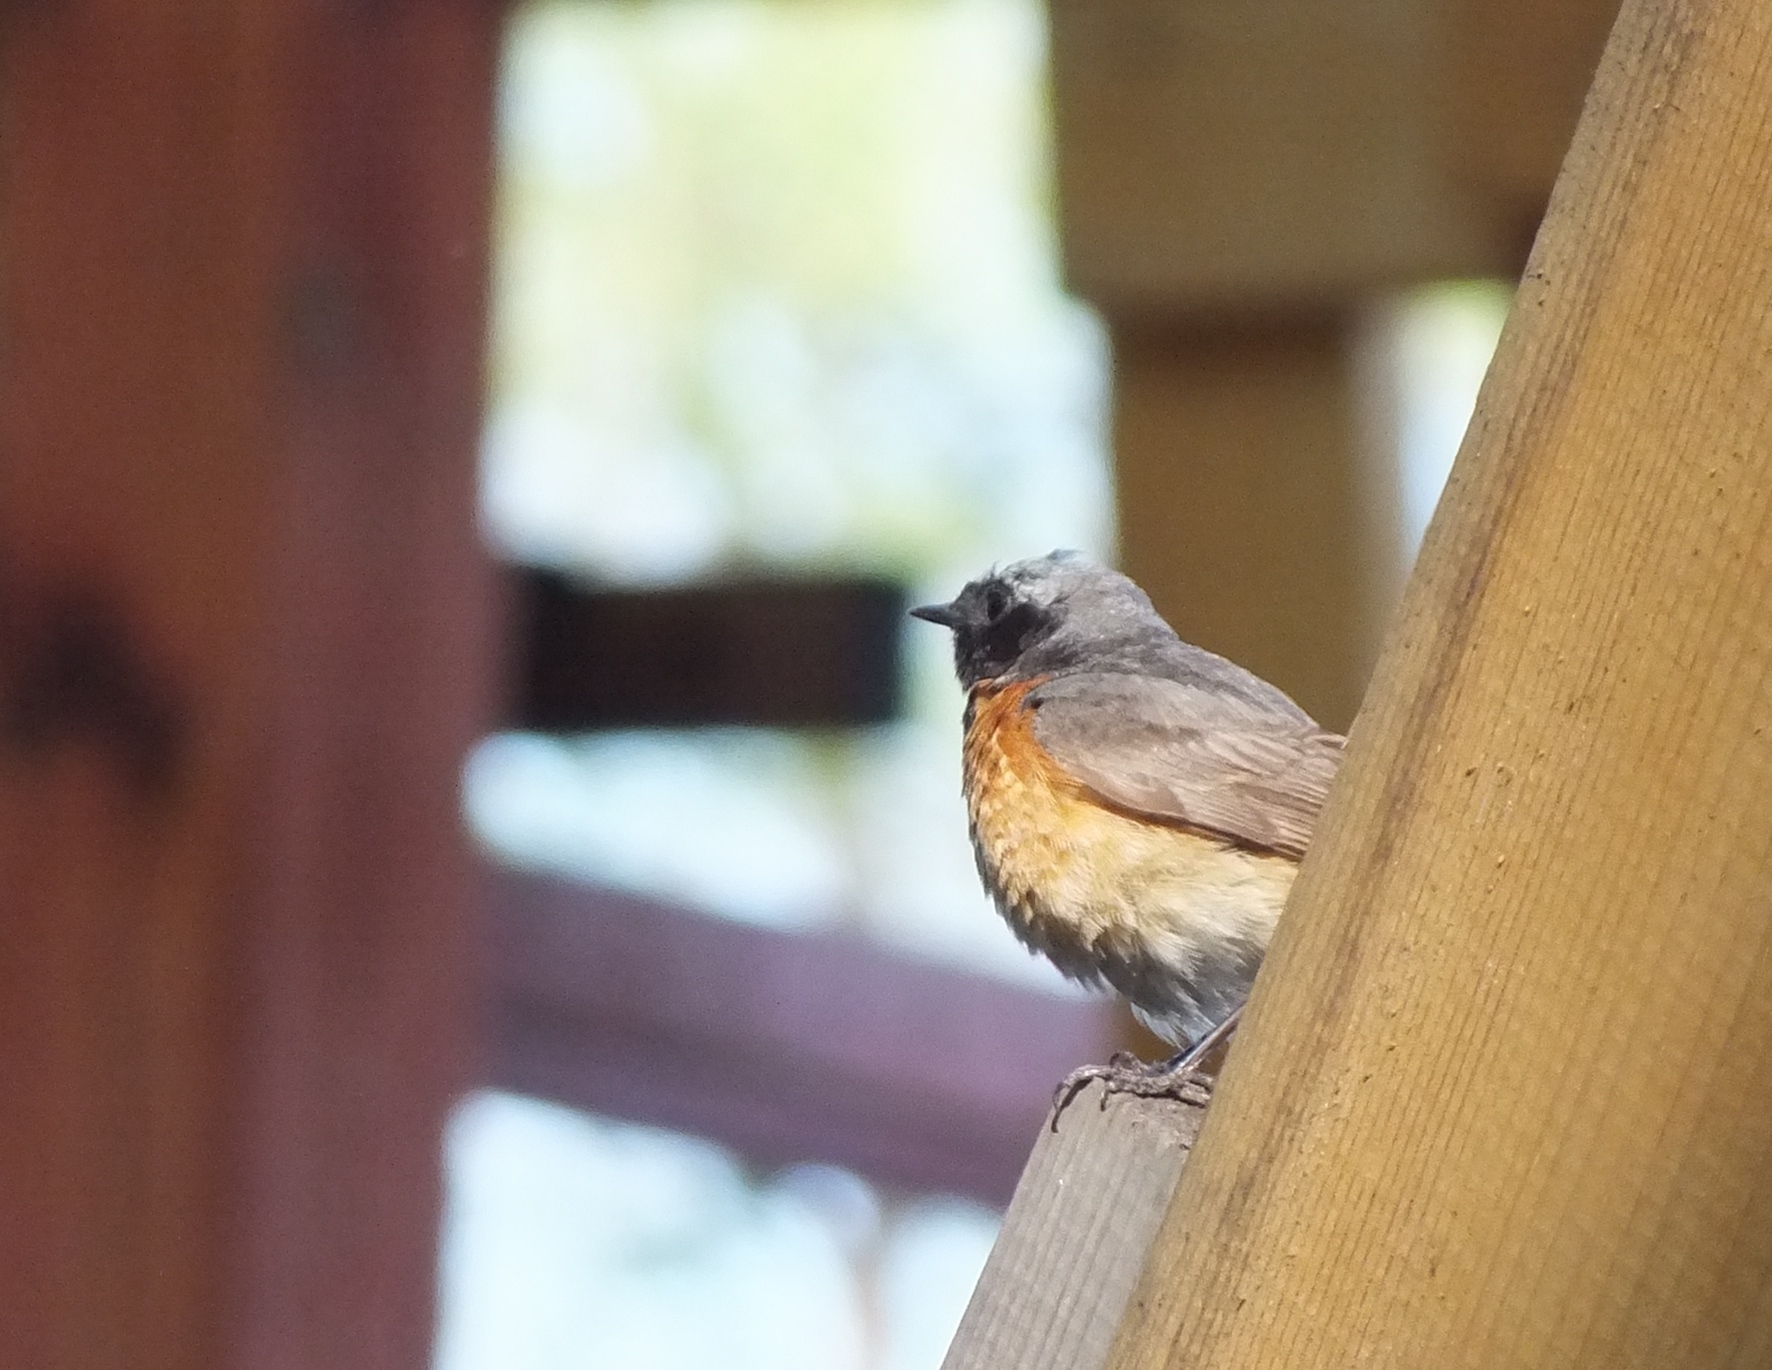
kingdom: Animalia
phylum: Chordata
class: Aves
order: Passeriformes
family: Muscicapidae
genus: Phoenicurus
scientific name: Phoenicurus phoenicurus
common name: Common redstart
